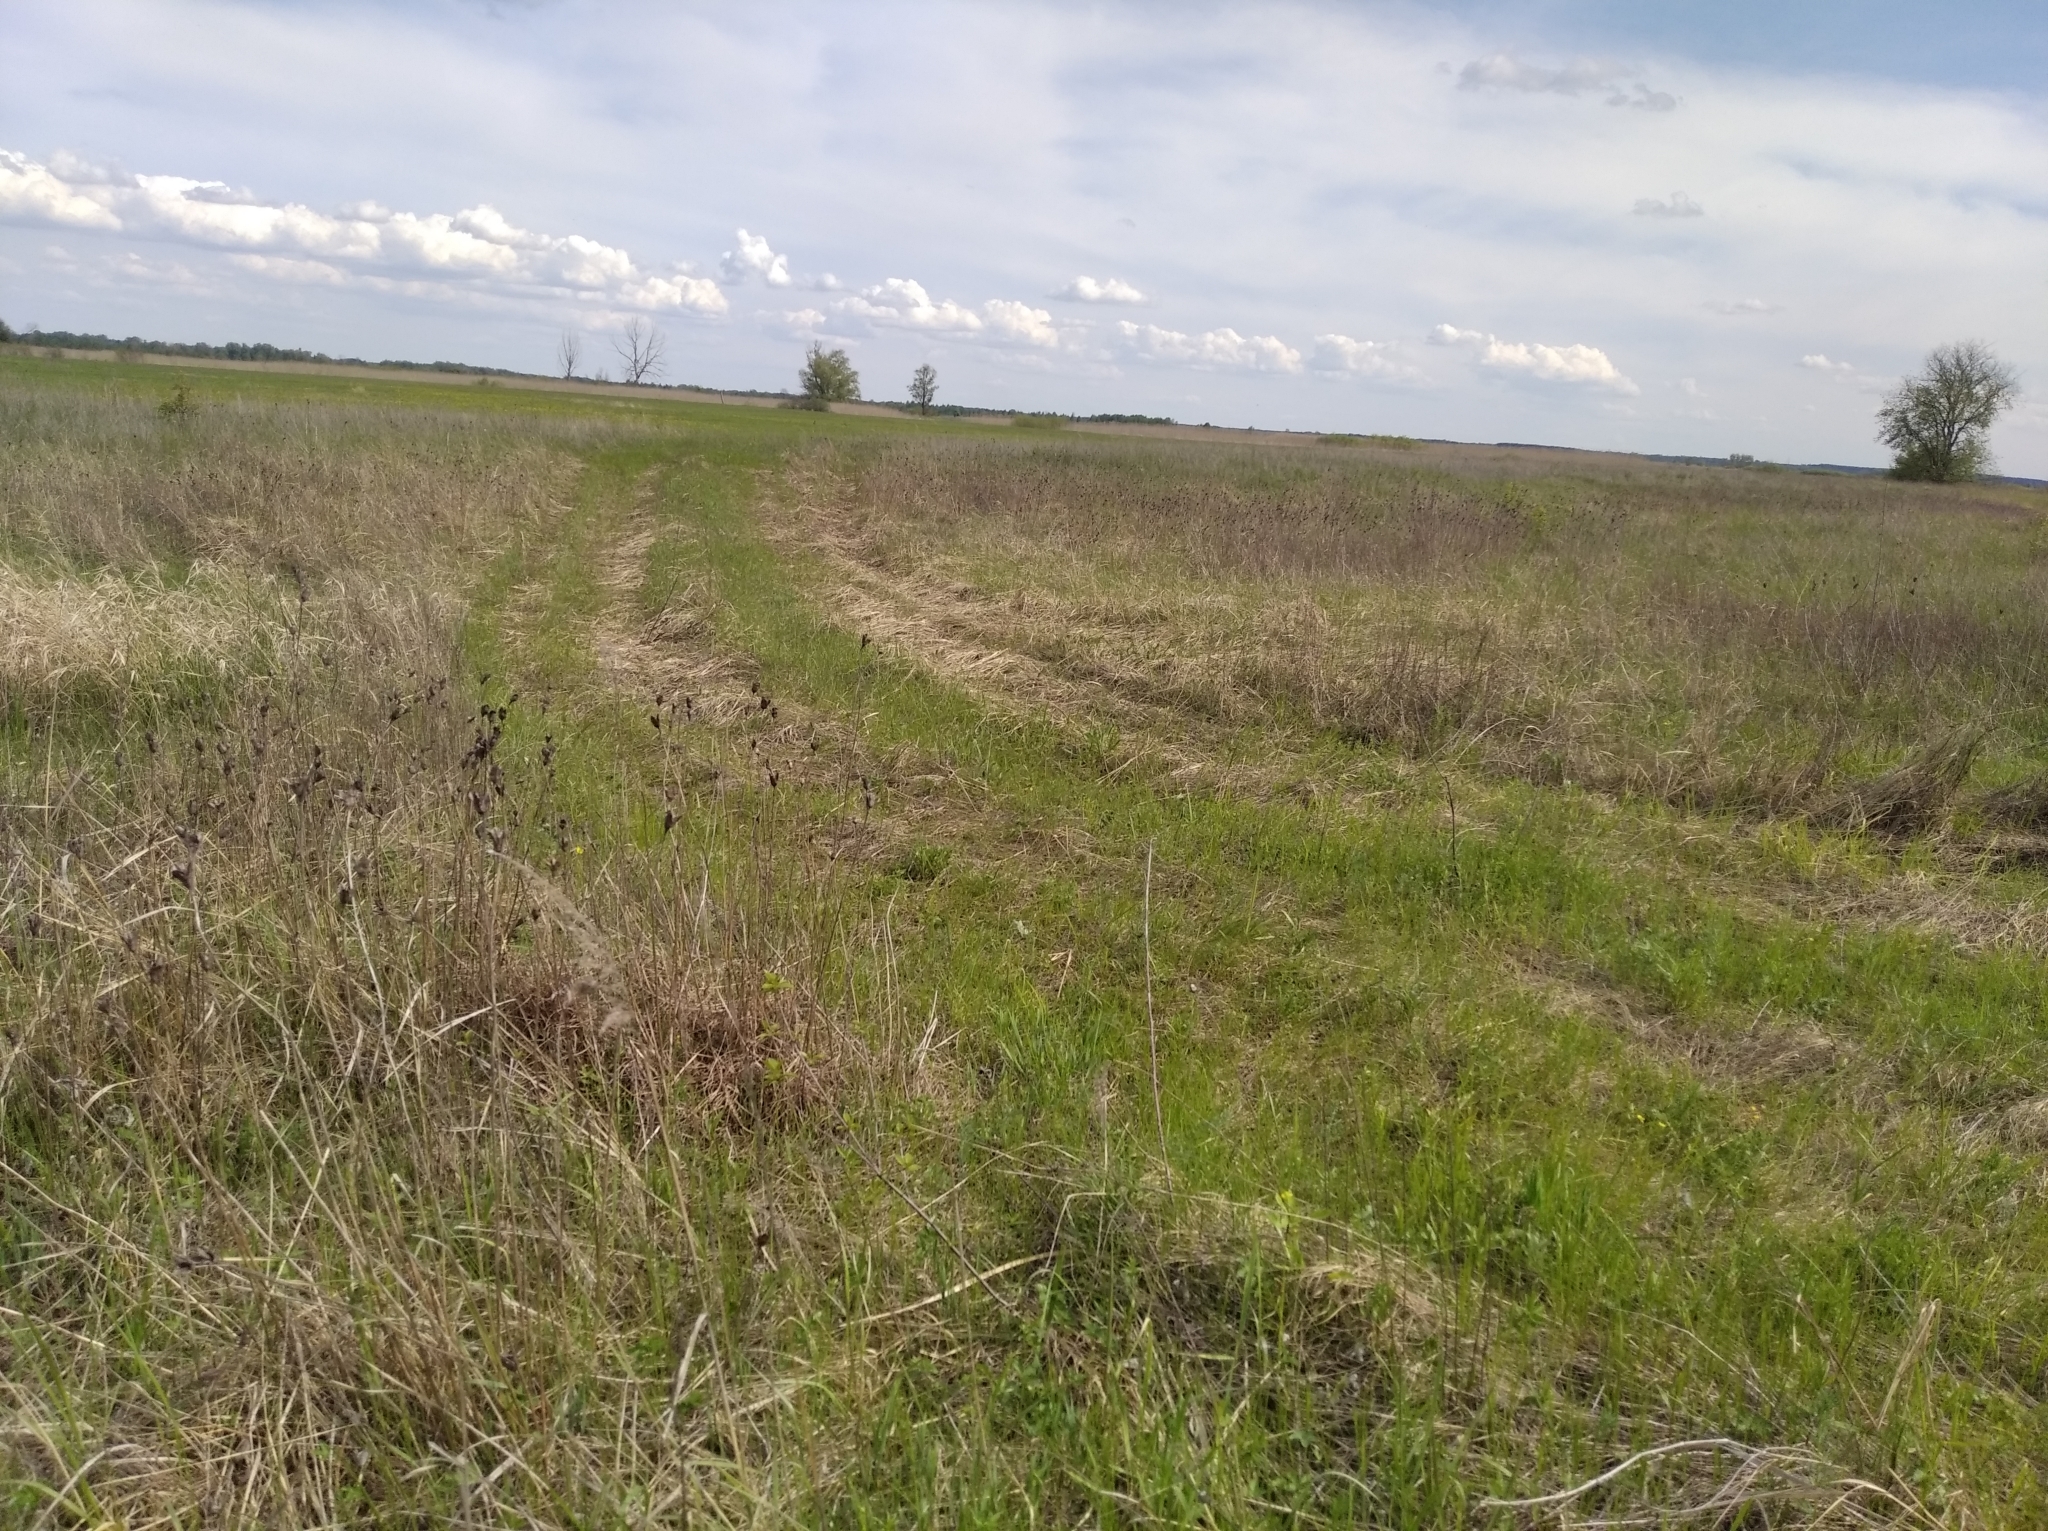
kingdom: Plantae
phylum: Tracheophyta
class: Liliopsida
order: Asparagales
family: Iridaceae
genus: Iris
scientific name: Iris sibirica
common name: Siberian iris
